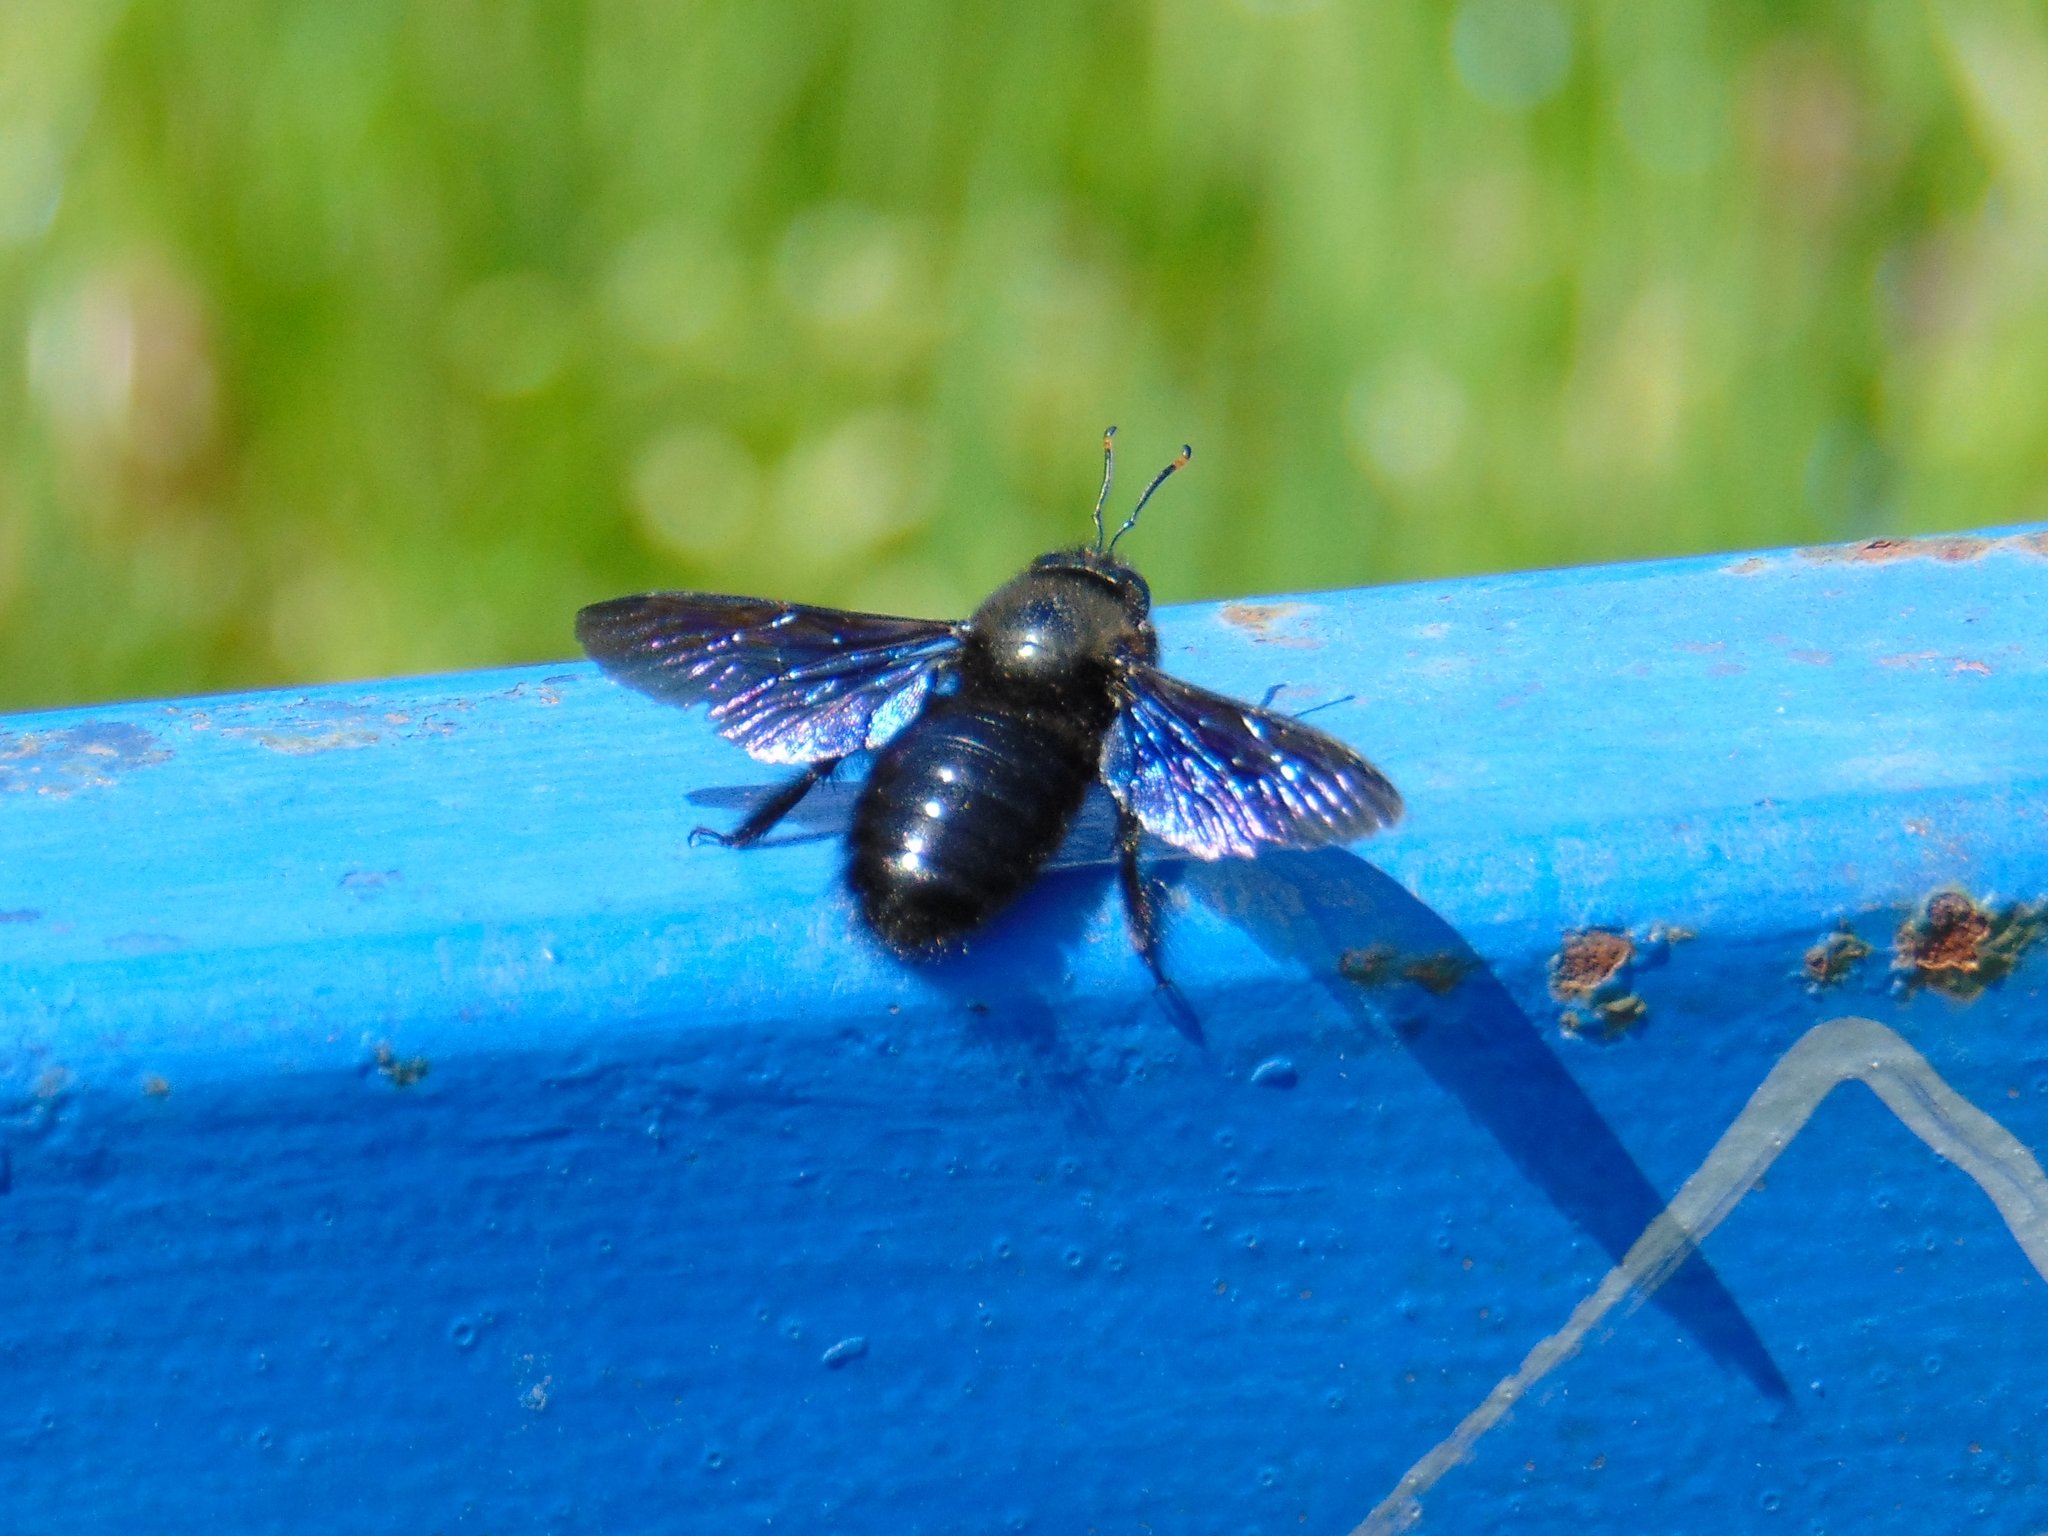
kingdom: Animalia
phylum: Arthropoda
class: Insecta
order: Hymenoptera
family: Apidae
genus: Xylocopa
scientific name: Xylocopa violacea
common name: Violet carpenter bee
